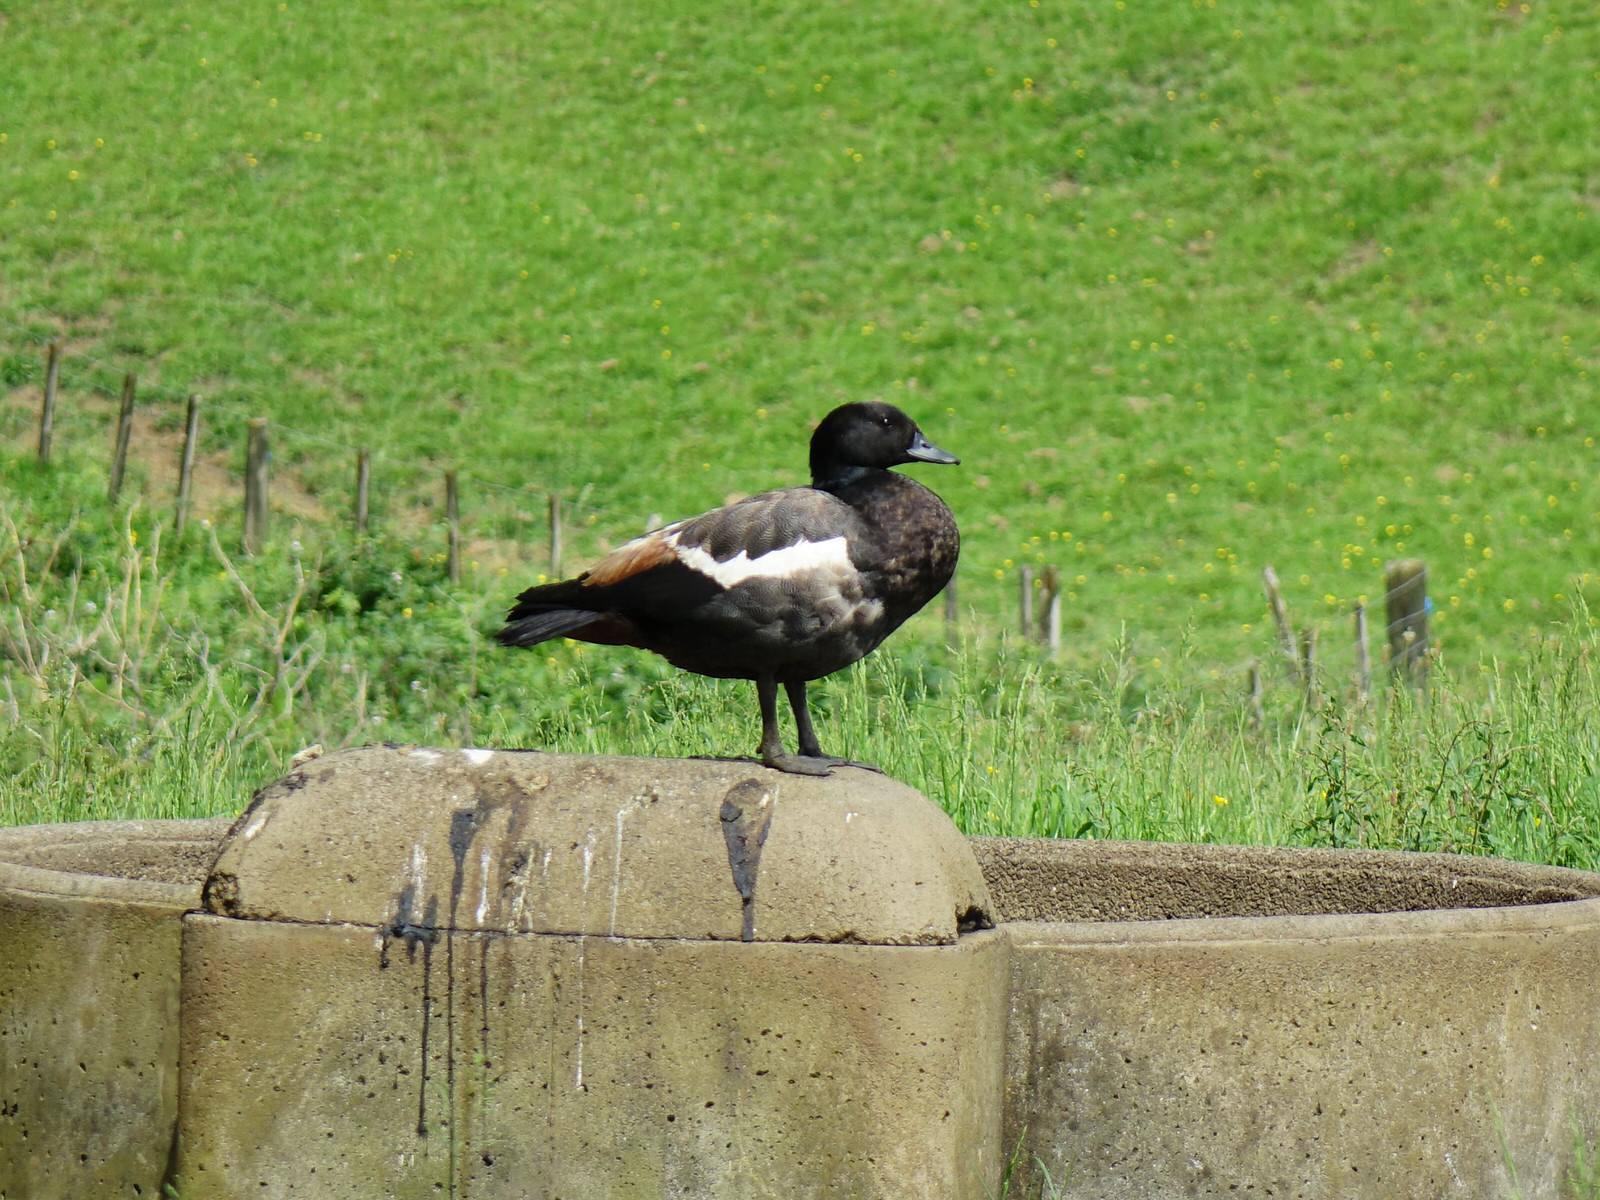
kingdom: Animalia
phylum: Chordata
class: Aves
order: Anseriformes
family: Anatidae
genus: Tadorna
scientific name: Tadorna variegata
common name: Paradise shelduck
